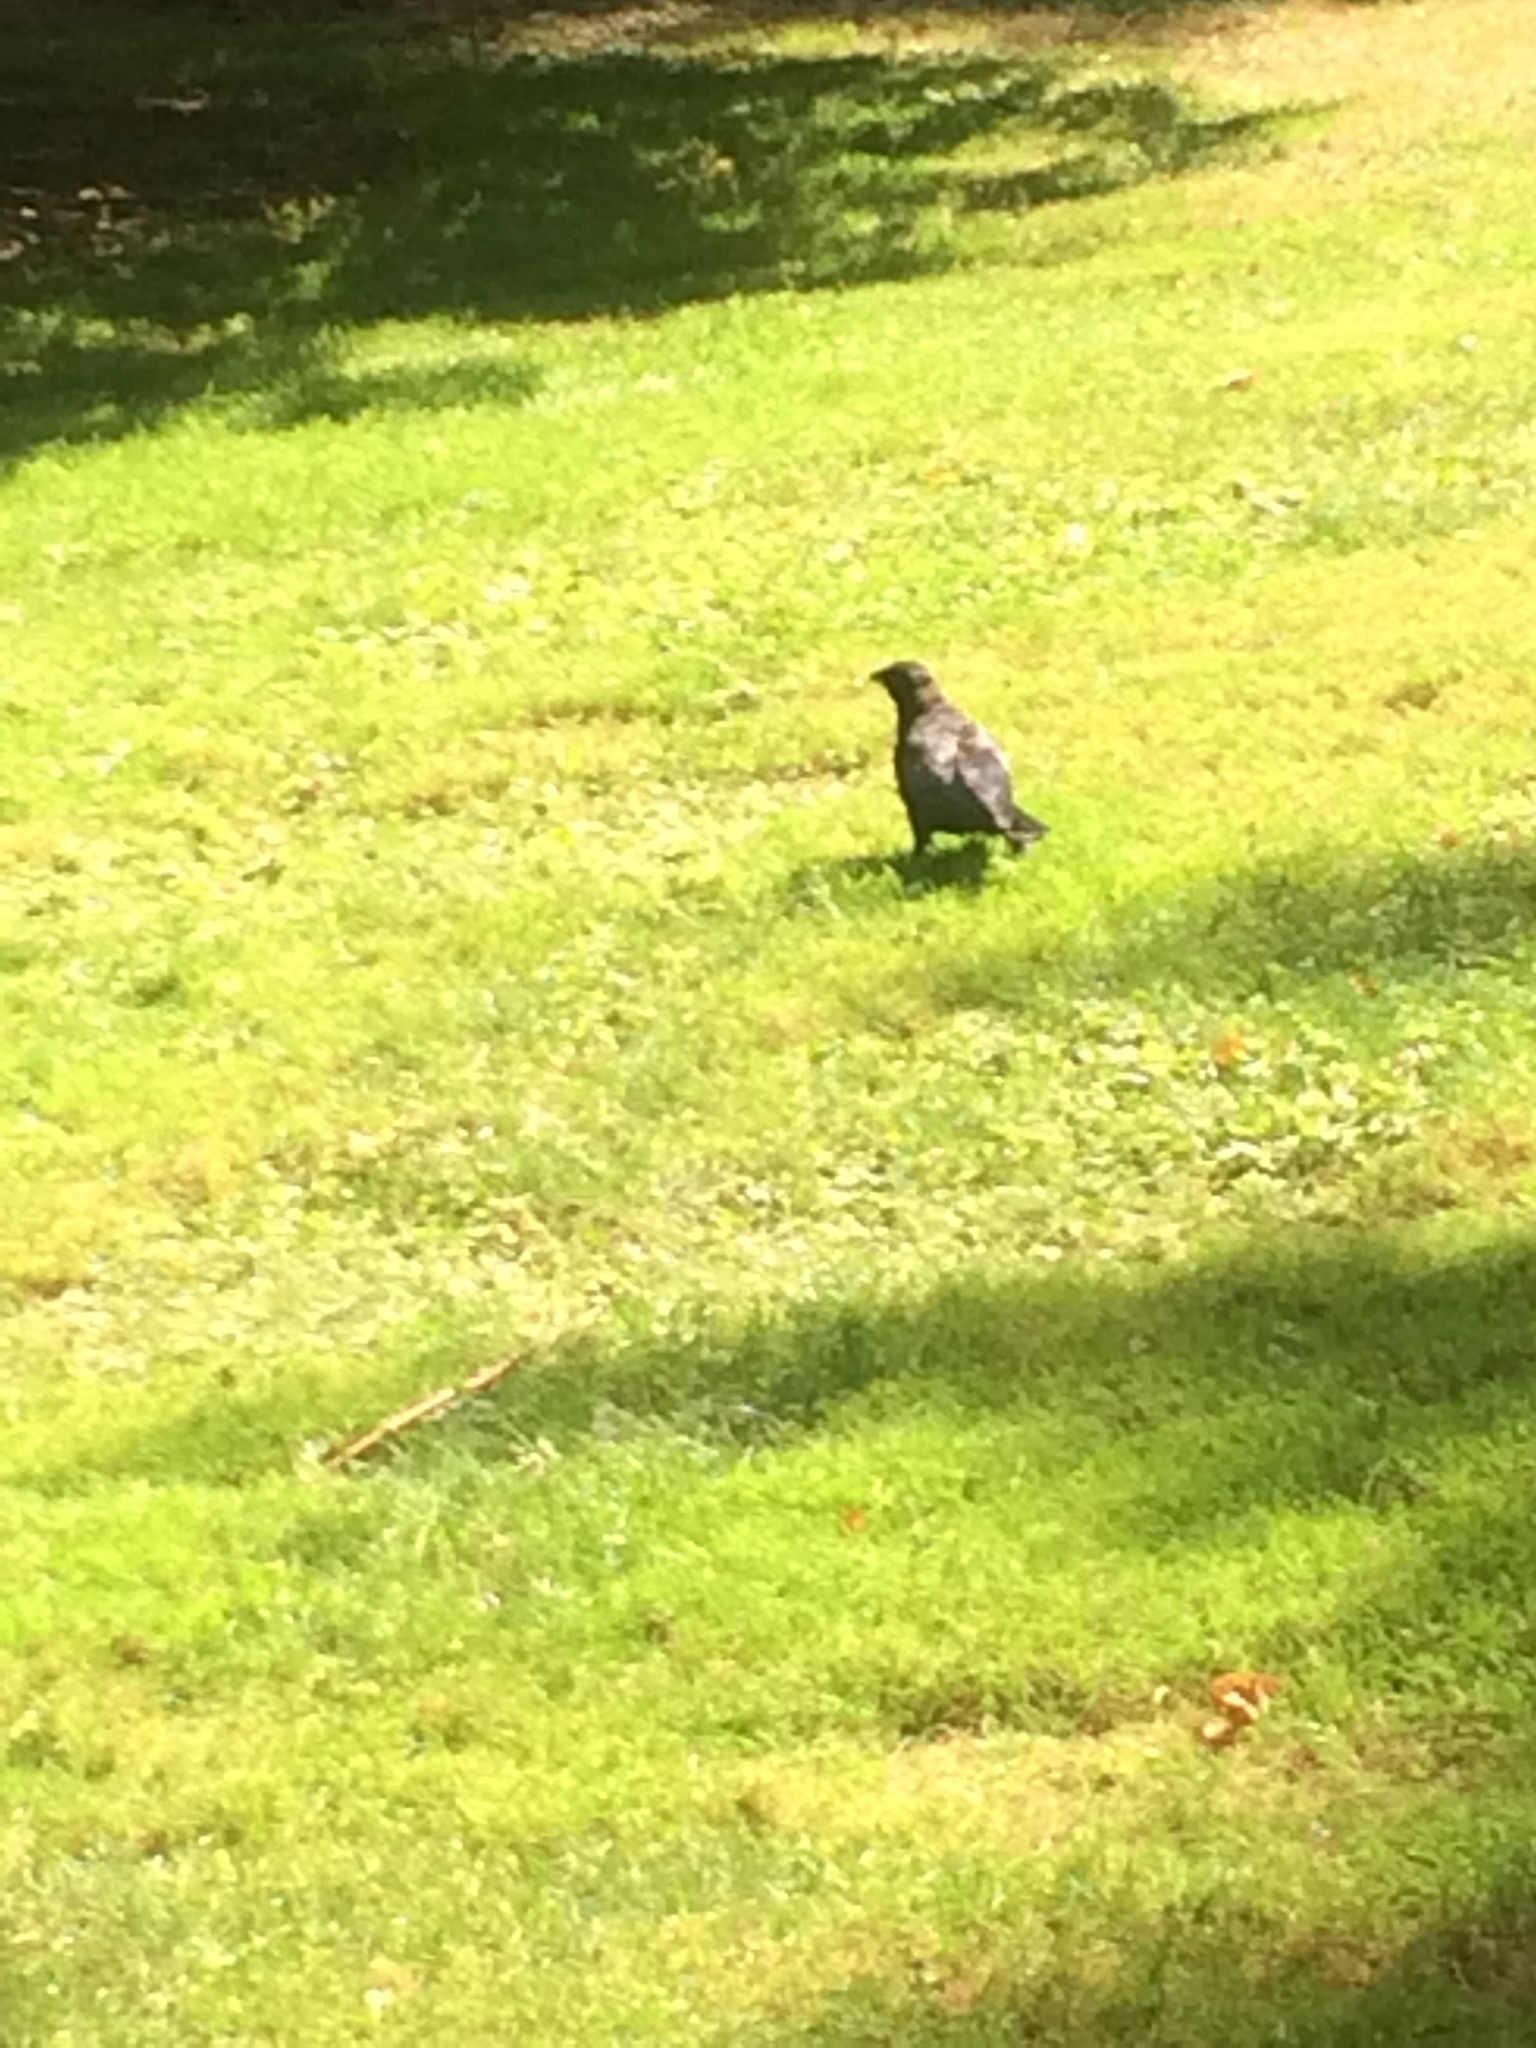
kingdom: Animalia
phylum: Chordata
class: Aves
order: Passeriformes
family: Corvidae
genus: Corvus
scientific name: Corvus brachyrhynchos
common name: American crow
